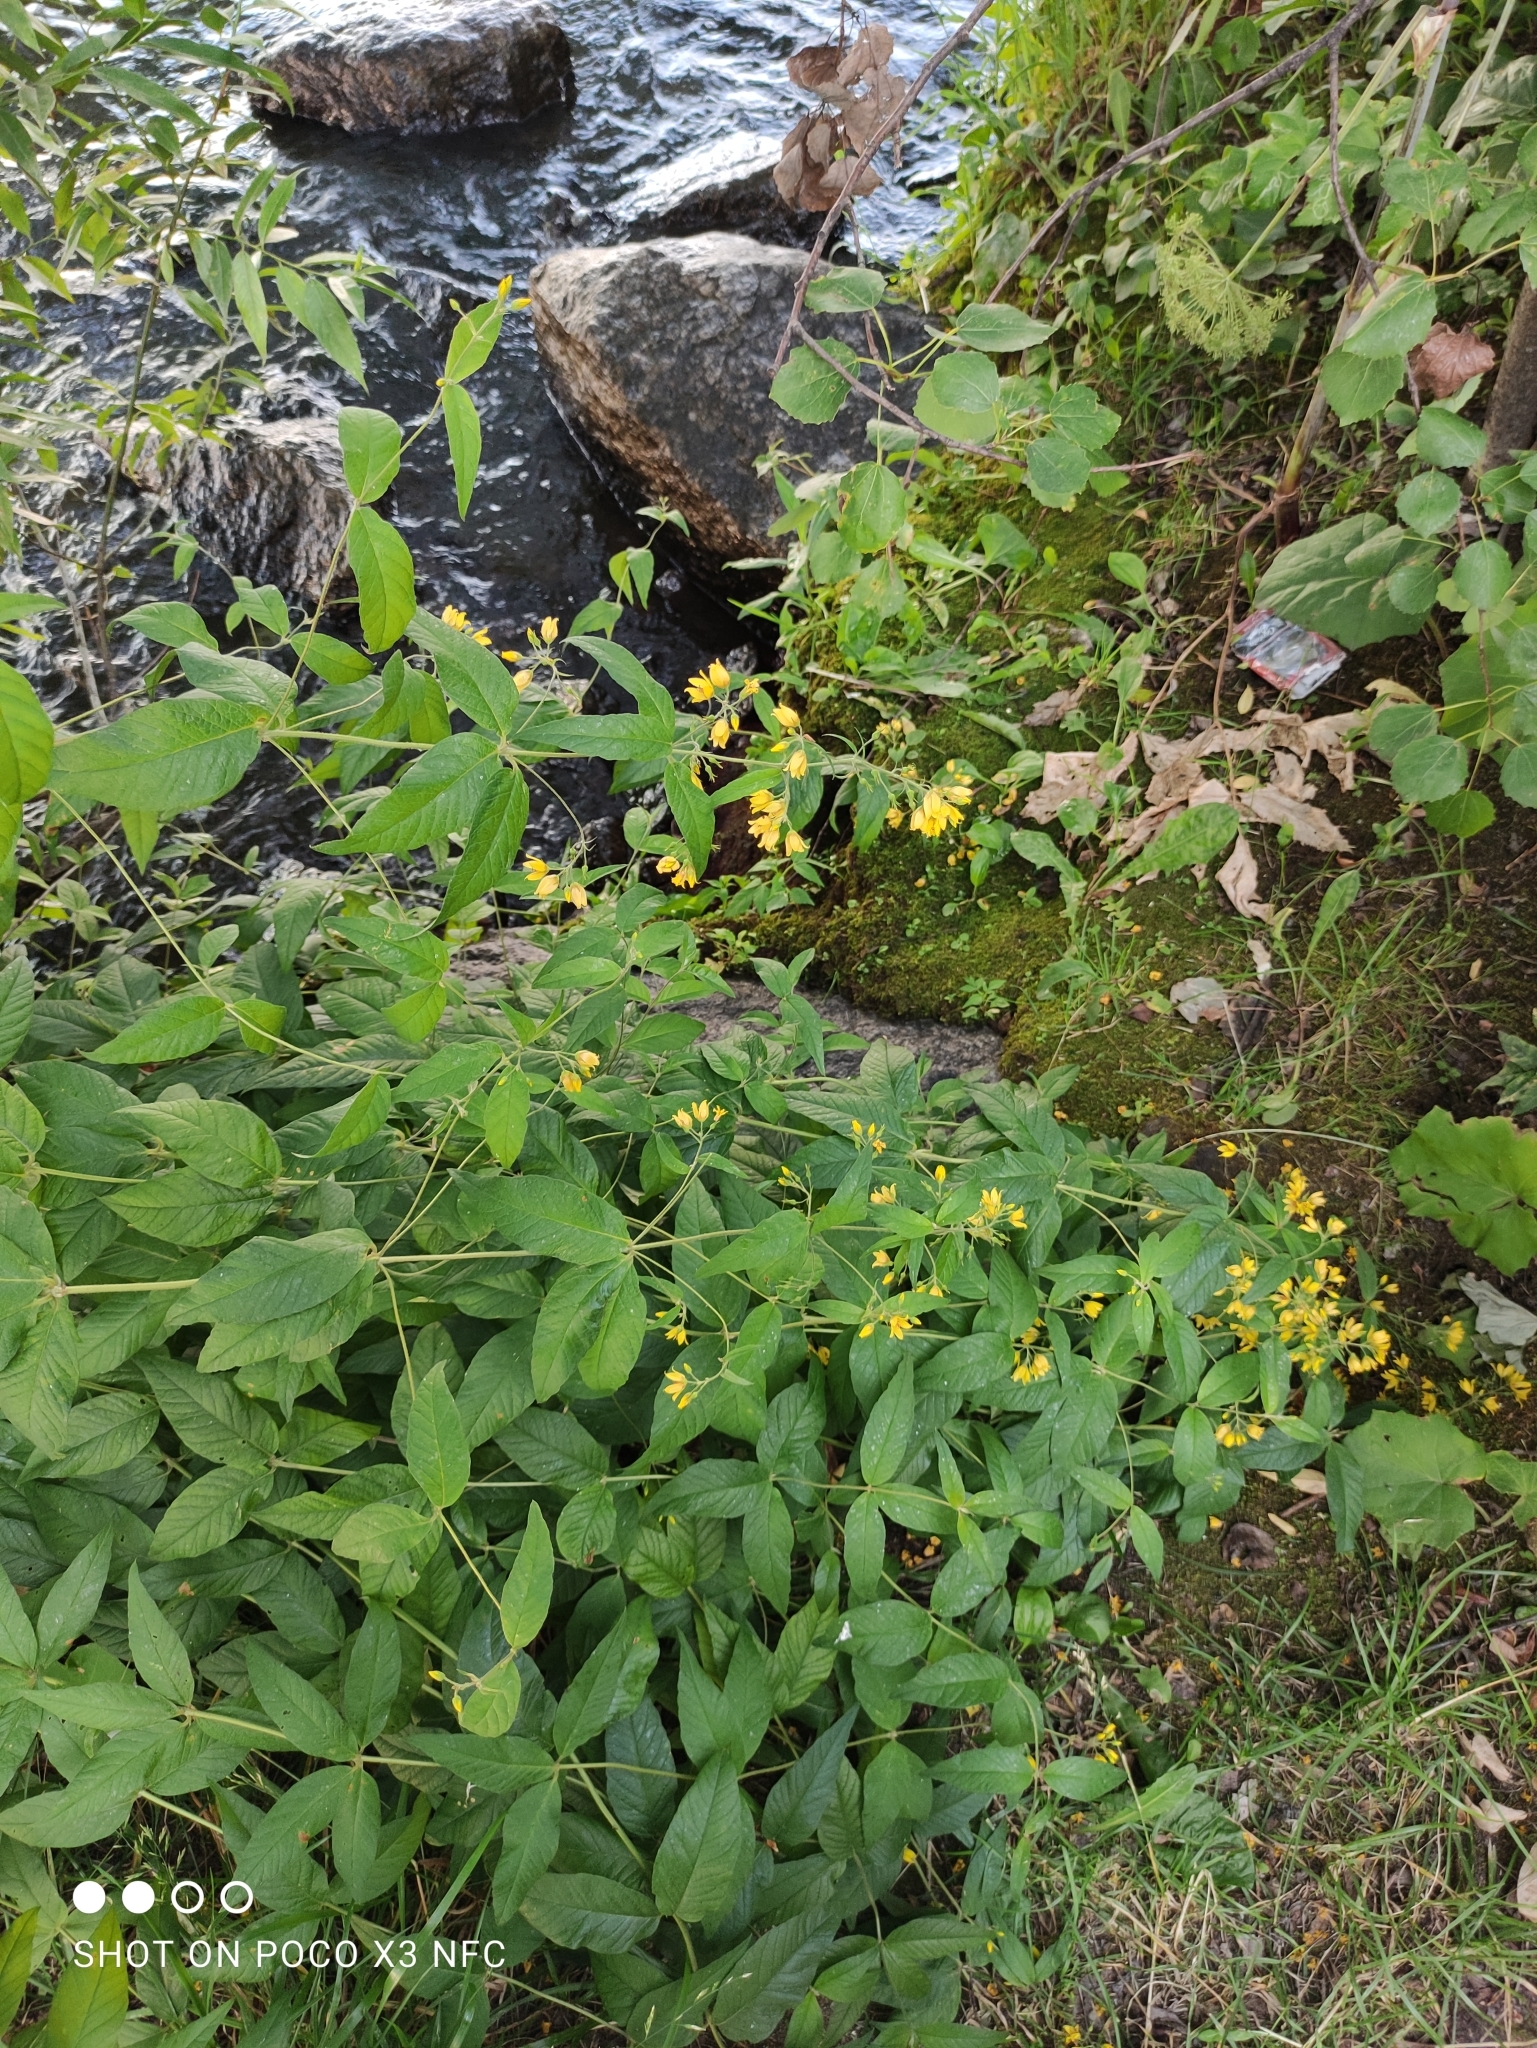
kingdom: Plantae
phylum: Tracheophyta
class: Magnoliopsida
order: Ericales
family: Primulaceae
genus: Lysimachia
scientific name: Lysimachia vulgaris
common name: Yellow loosestrife
